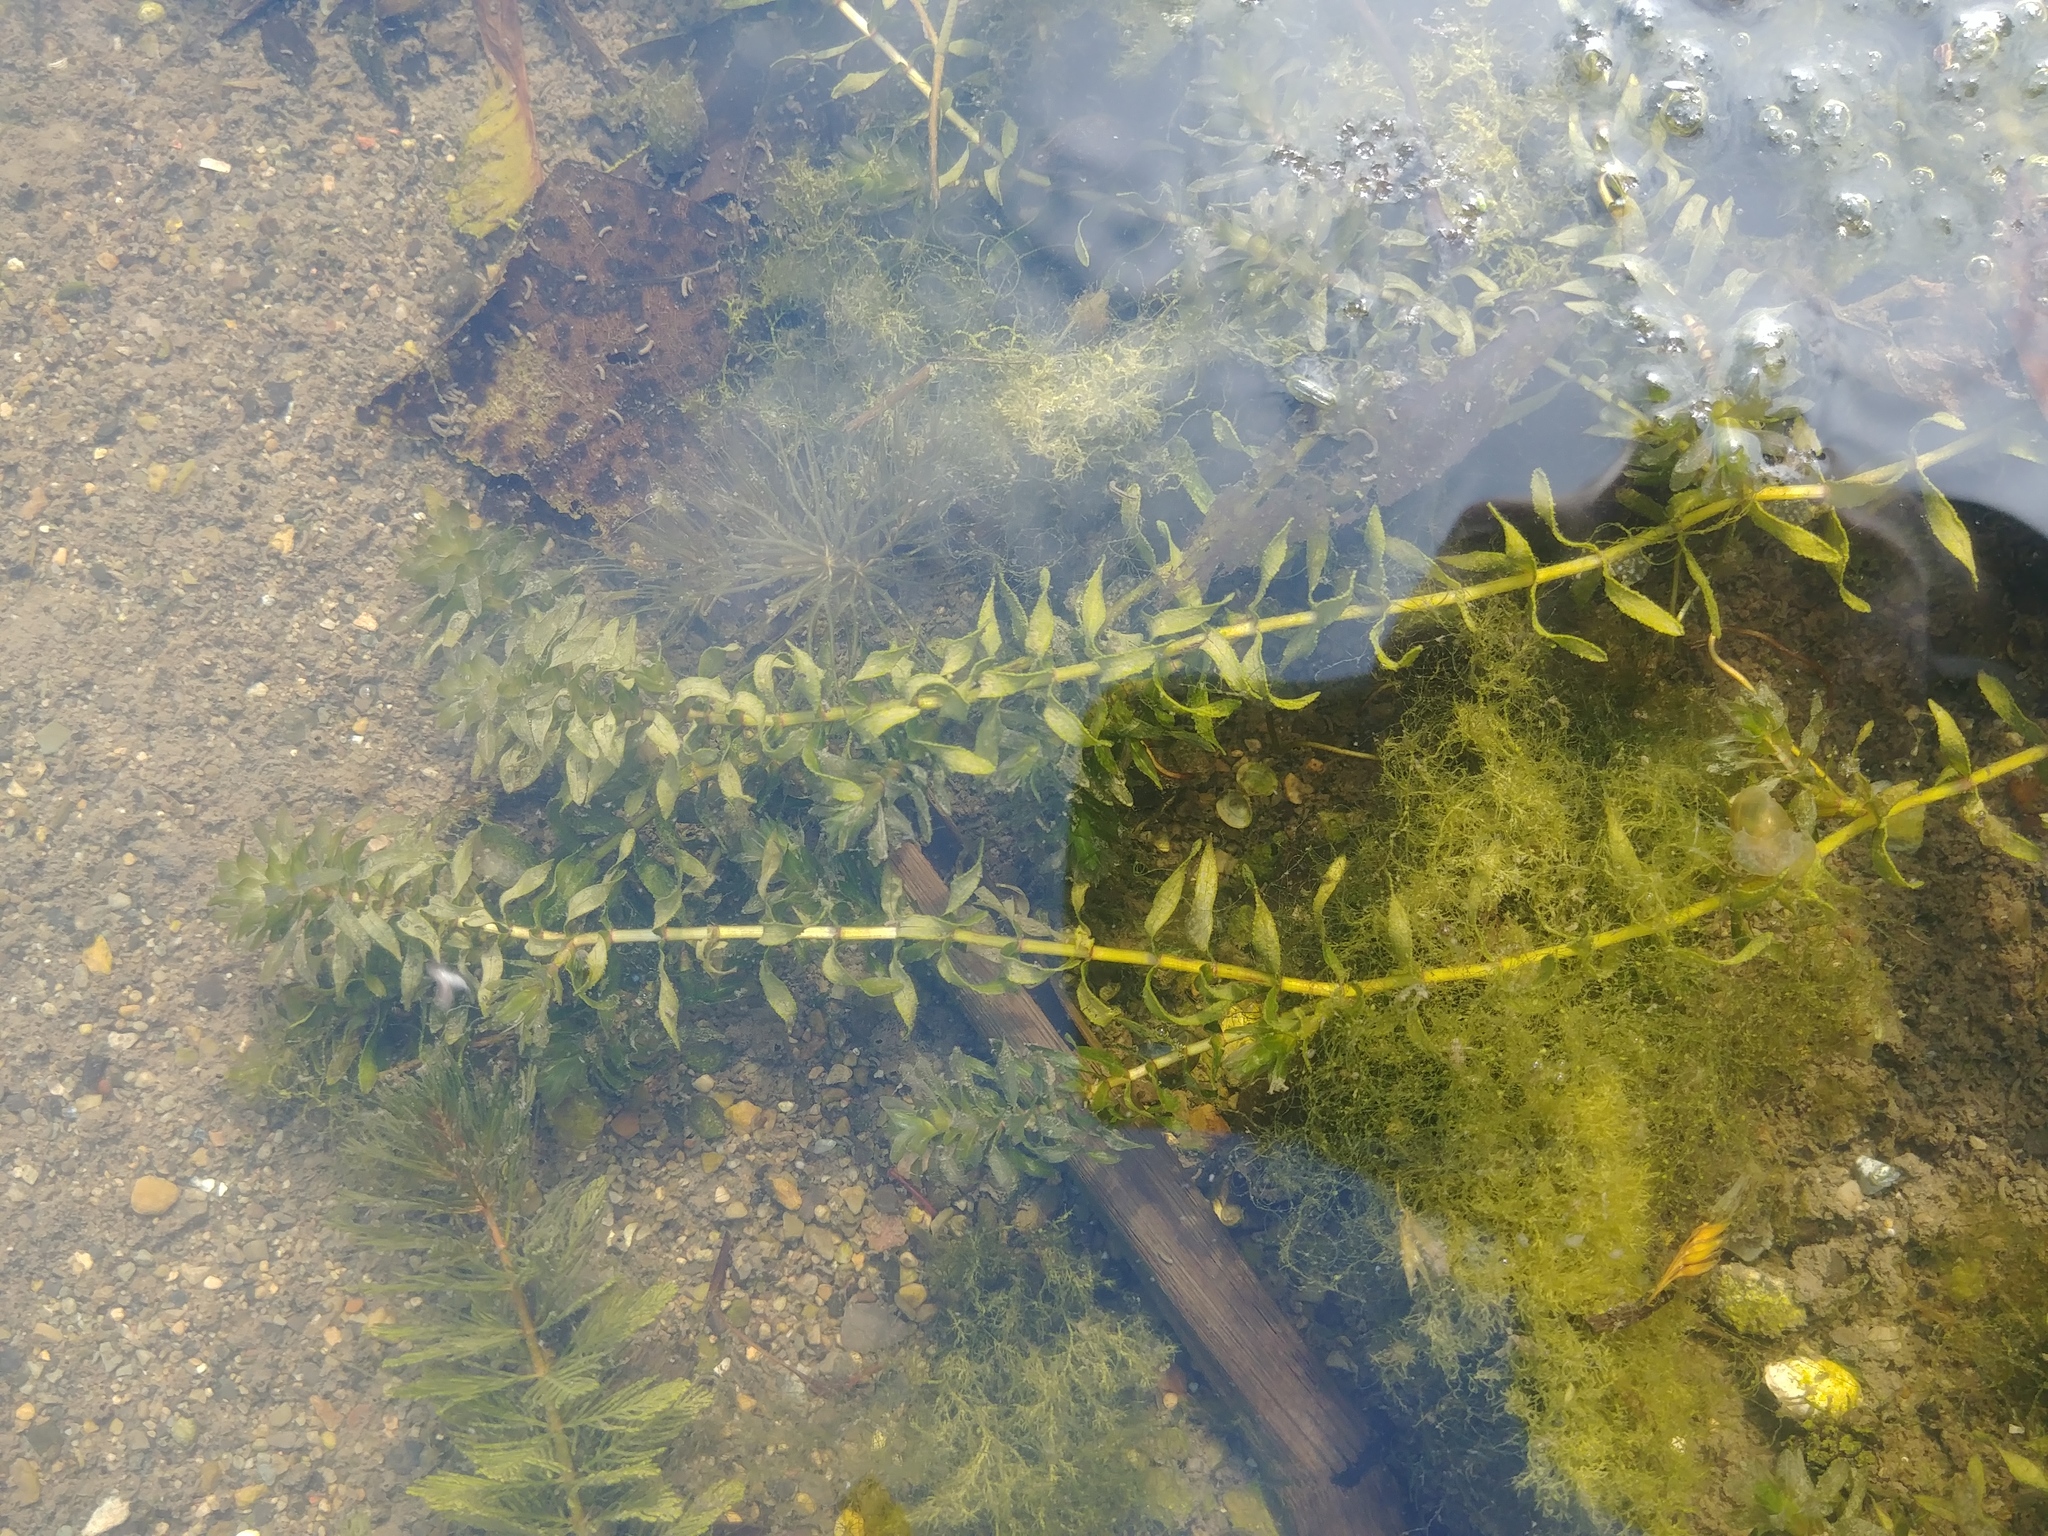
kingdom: Plantae
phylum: Tracheophyta
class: Liliopsida
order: Alismatales
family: Hydrocharitaceae
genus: Elodea
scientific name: Elodea canadensis
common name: Canadian waterweed
